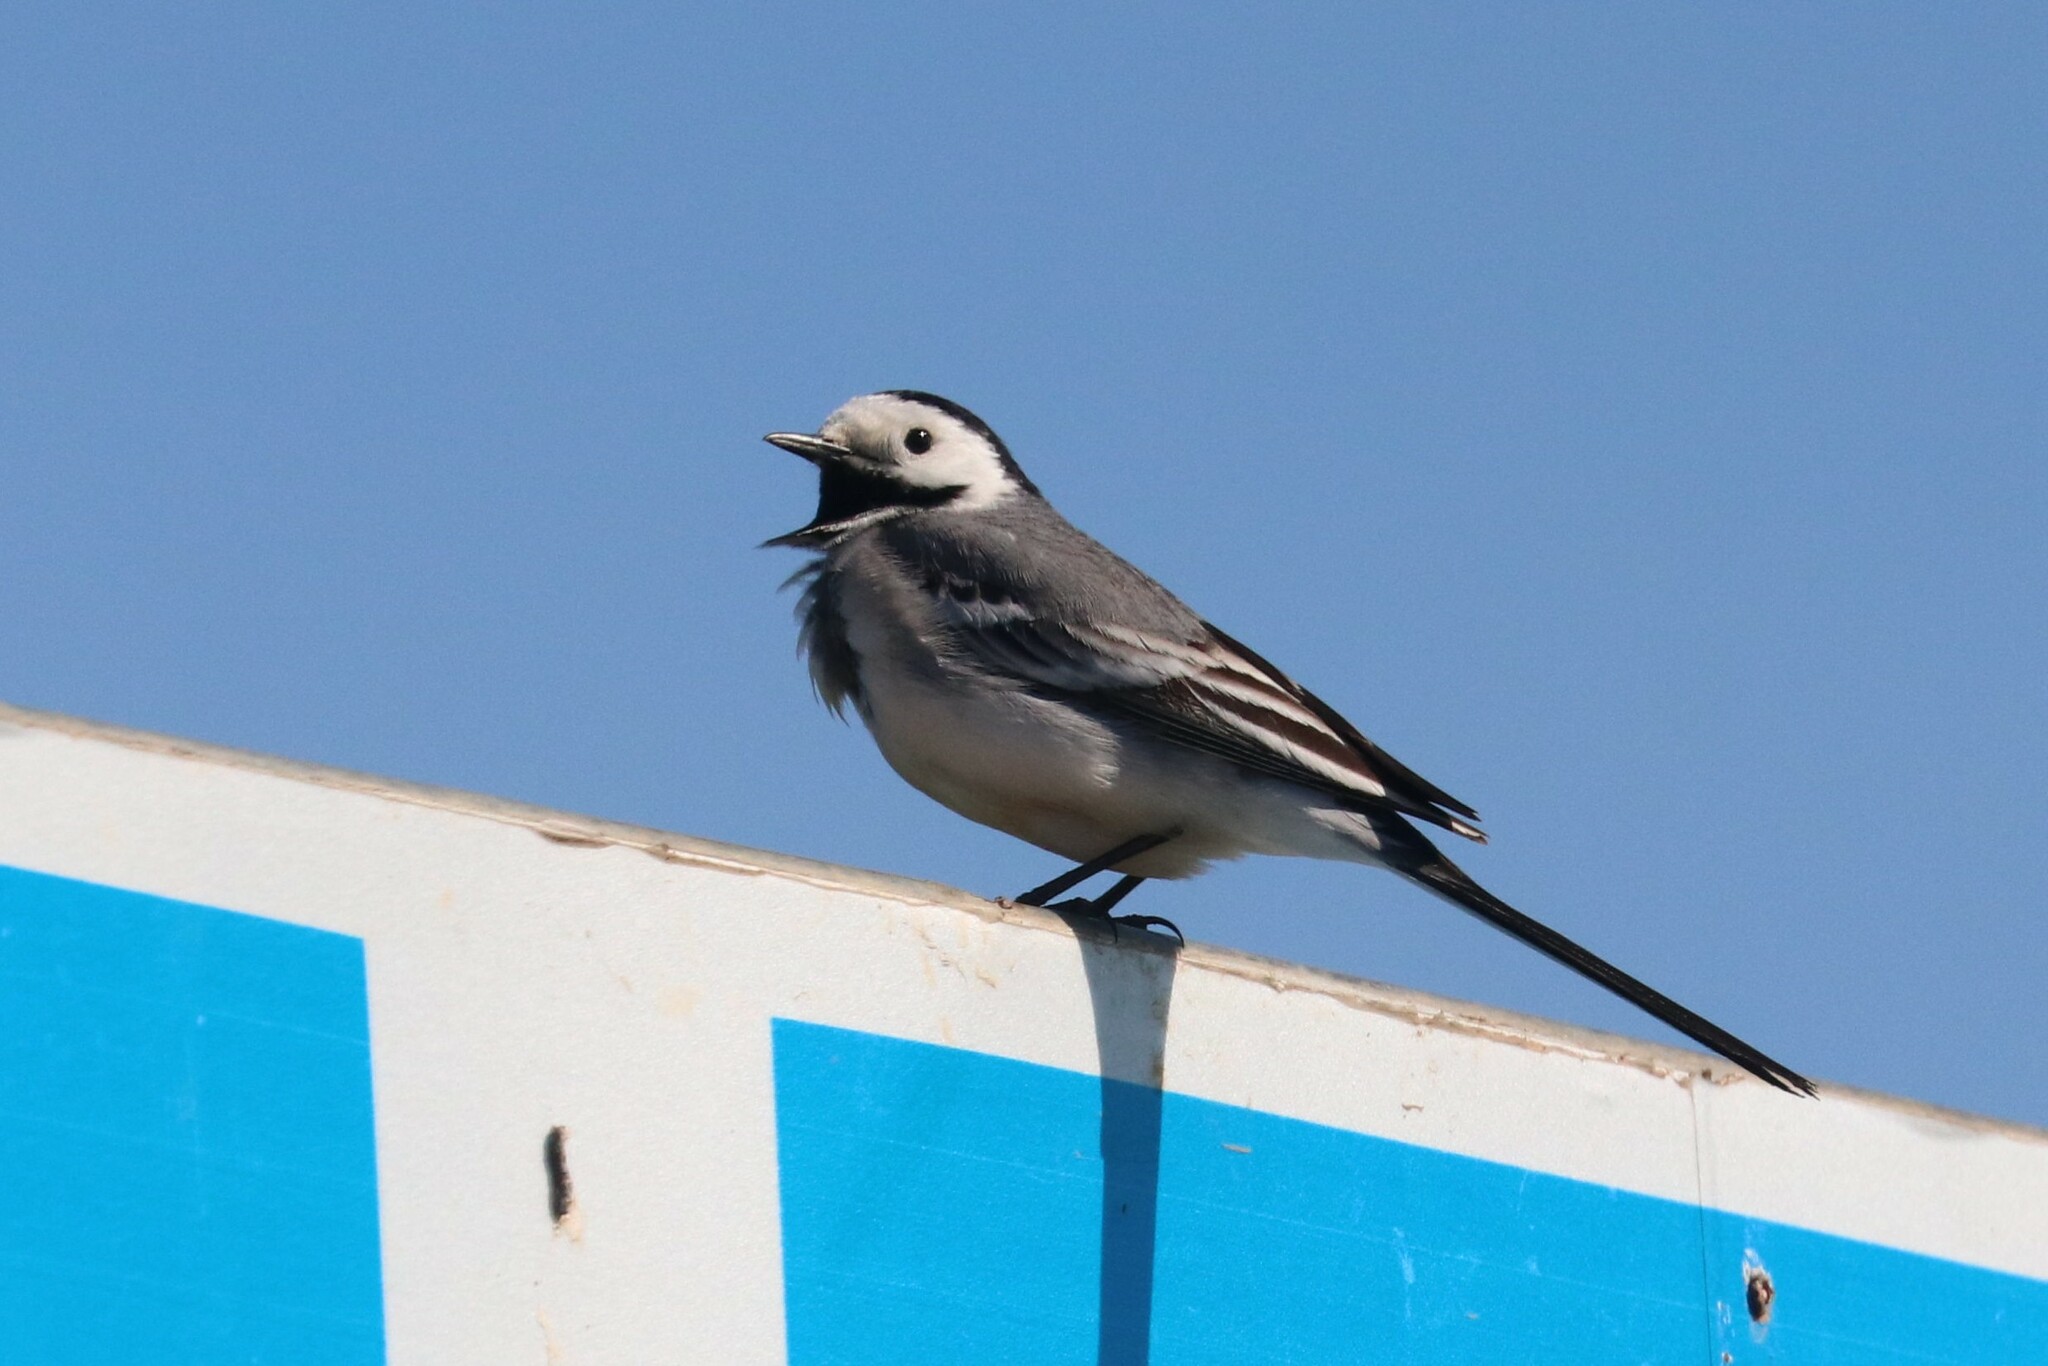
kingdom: Animalia
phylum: Chordata
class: Aves
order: Passeriformes
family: Motacillidae
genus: Motacilla
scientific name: Motacilla alba
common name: White wagtail
